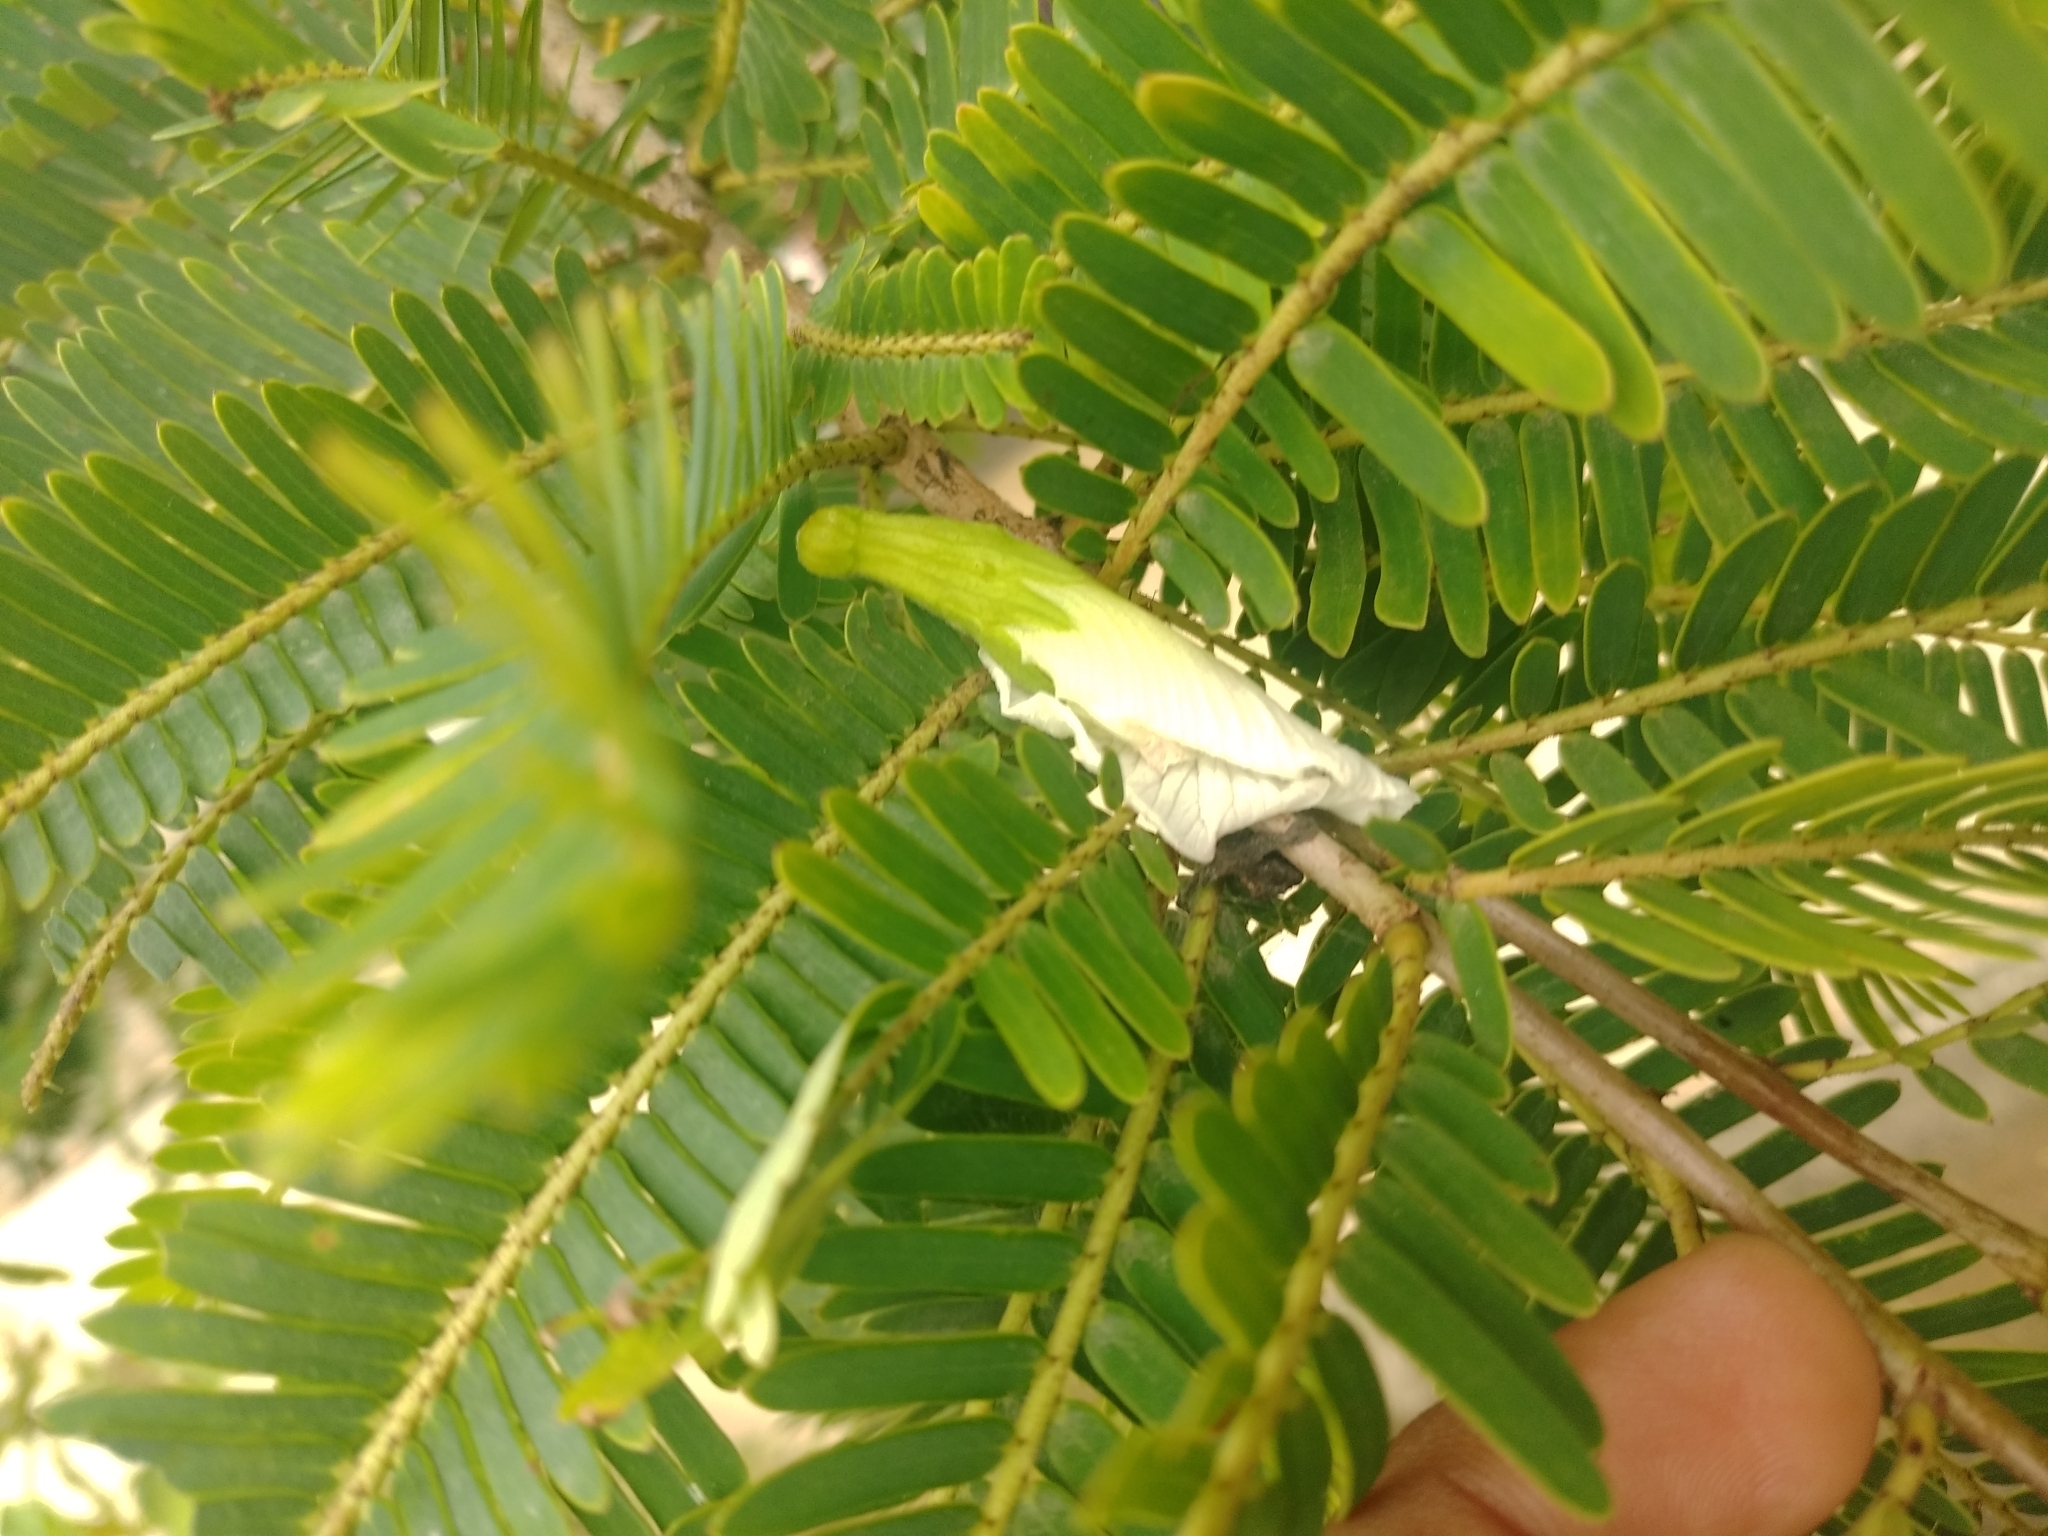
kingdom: Plantae
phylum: Tracheophyta
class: Magnoliopsida
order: Malpighiales
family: Phyllanthaceae
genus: Phyllanthus
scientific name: Phyllanthus emblica
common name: Indian gooseberry
